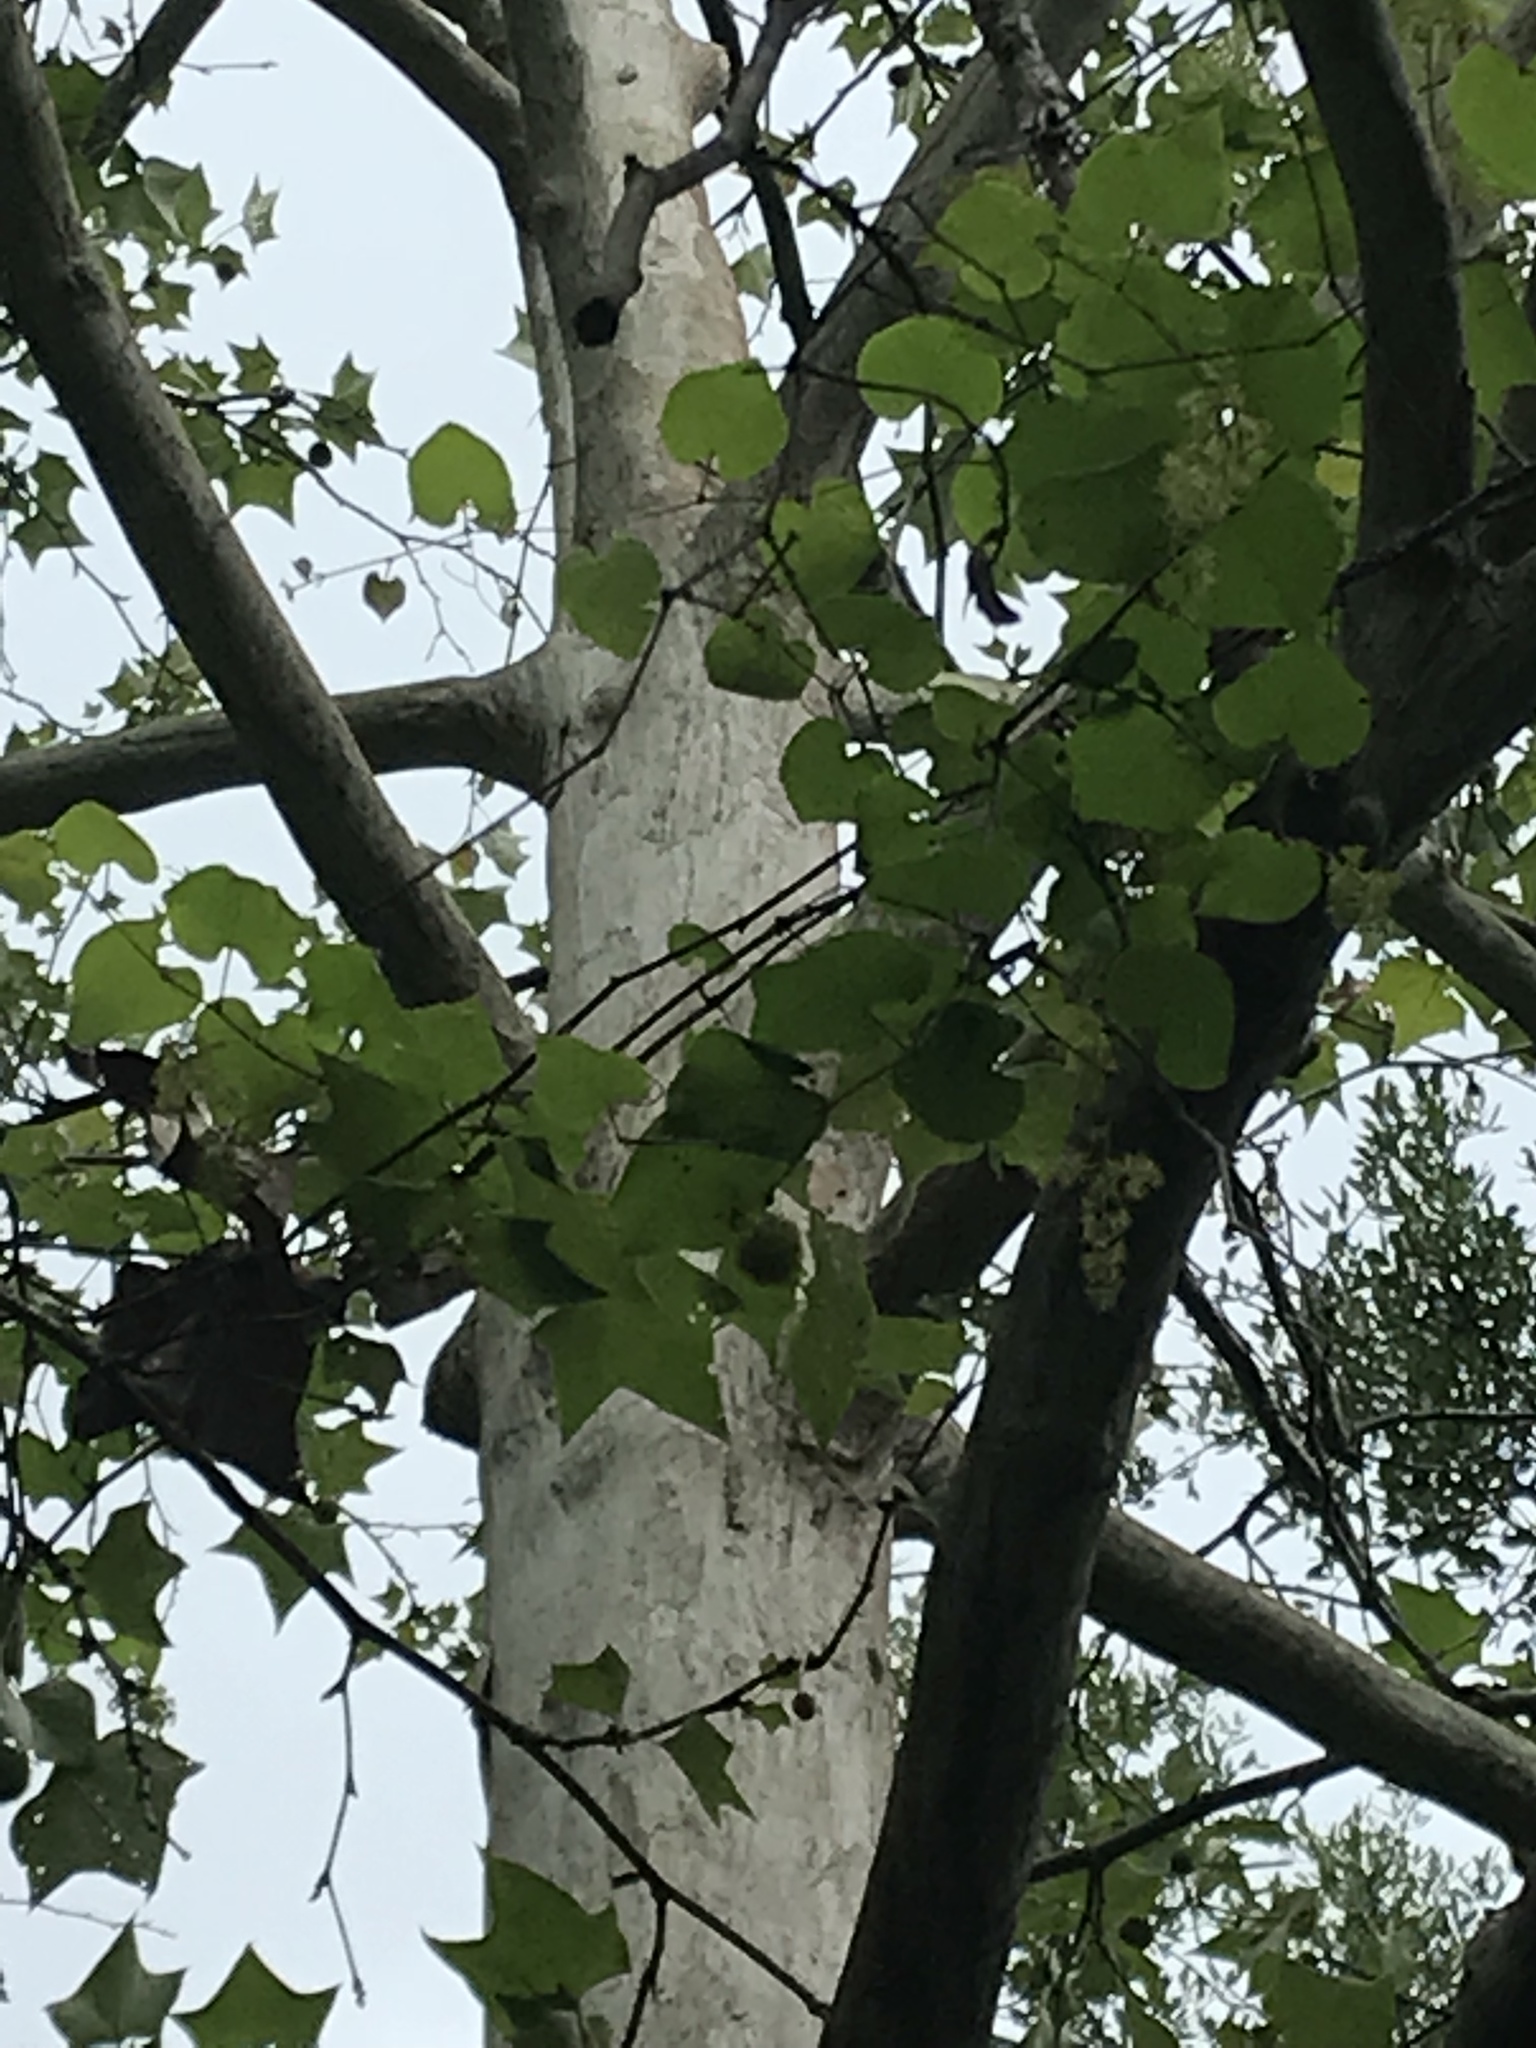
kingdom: Plantae
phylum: Tracheophyta
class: Magnoliopsida
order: Proteales
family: Platanaceae
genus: Platanus
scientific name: Platanus occidentalis
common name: American sycamore
